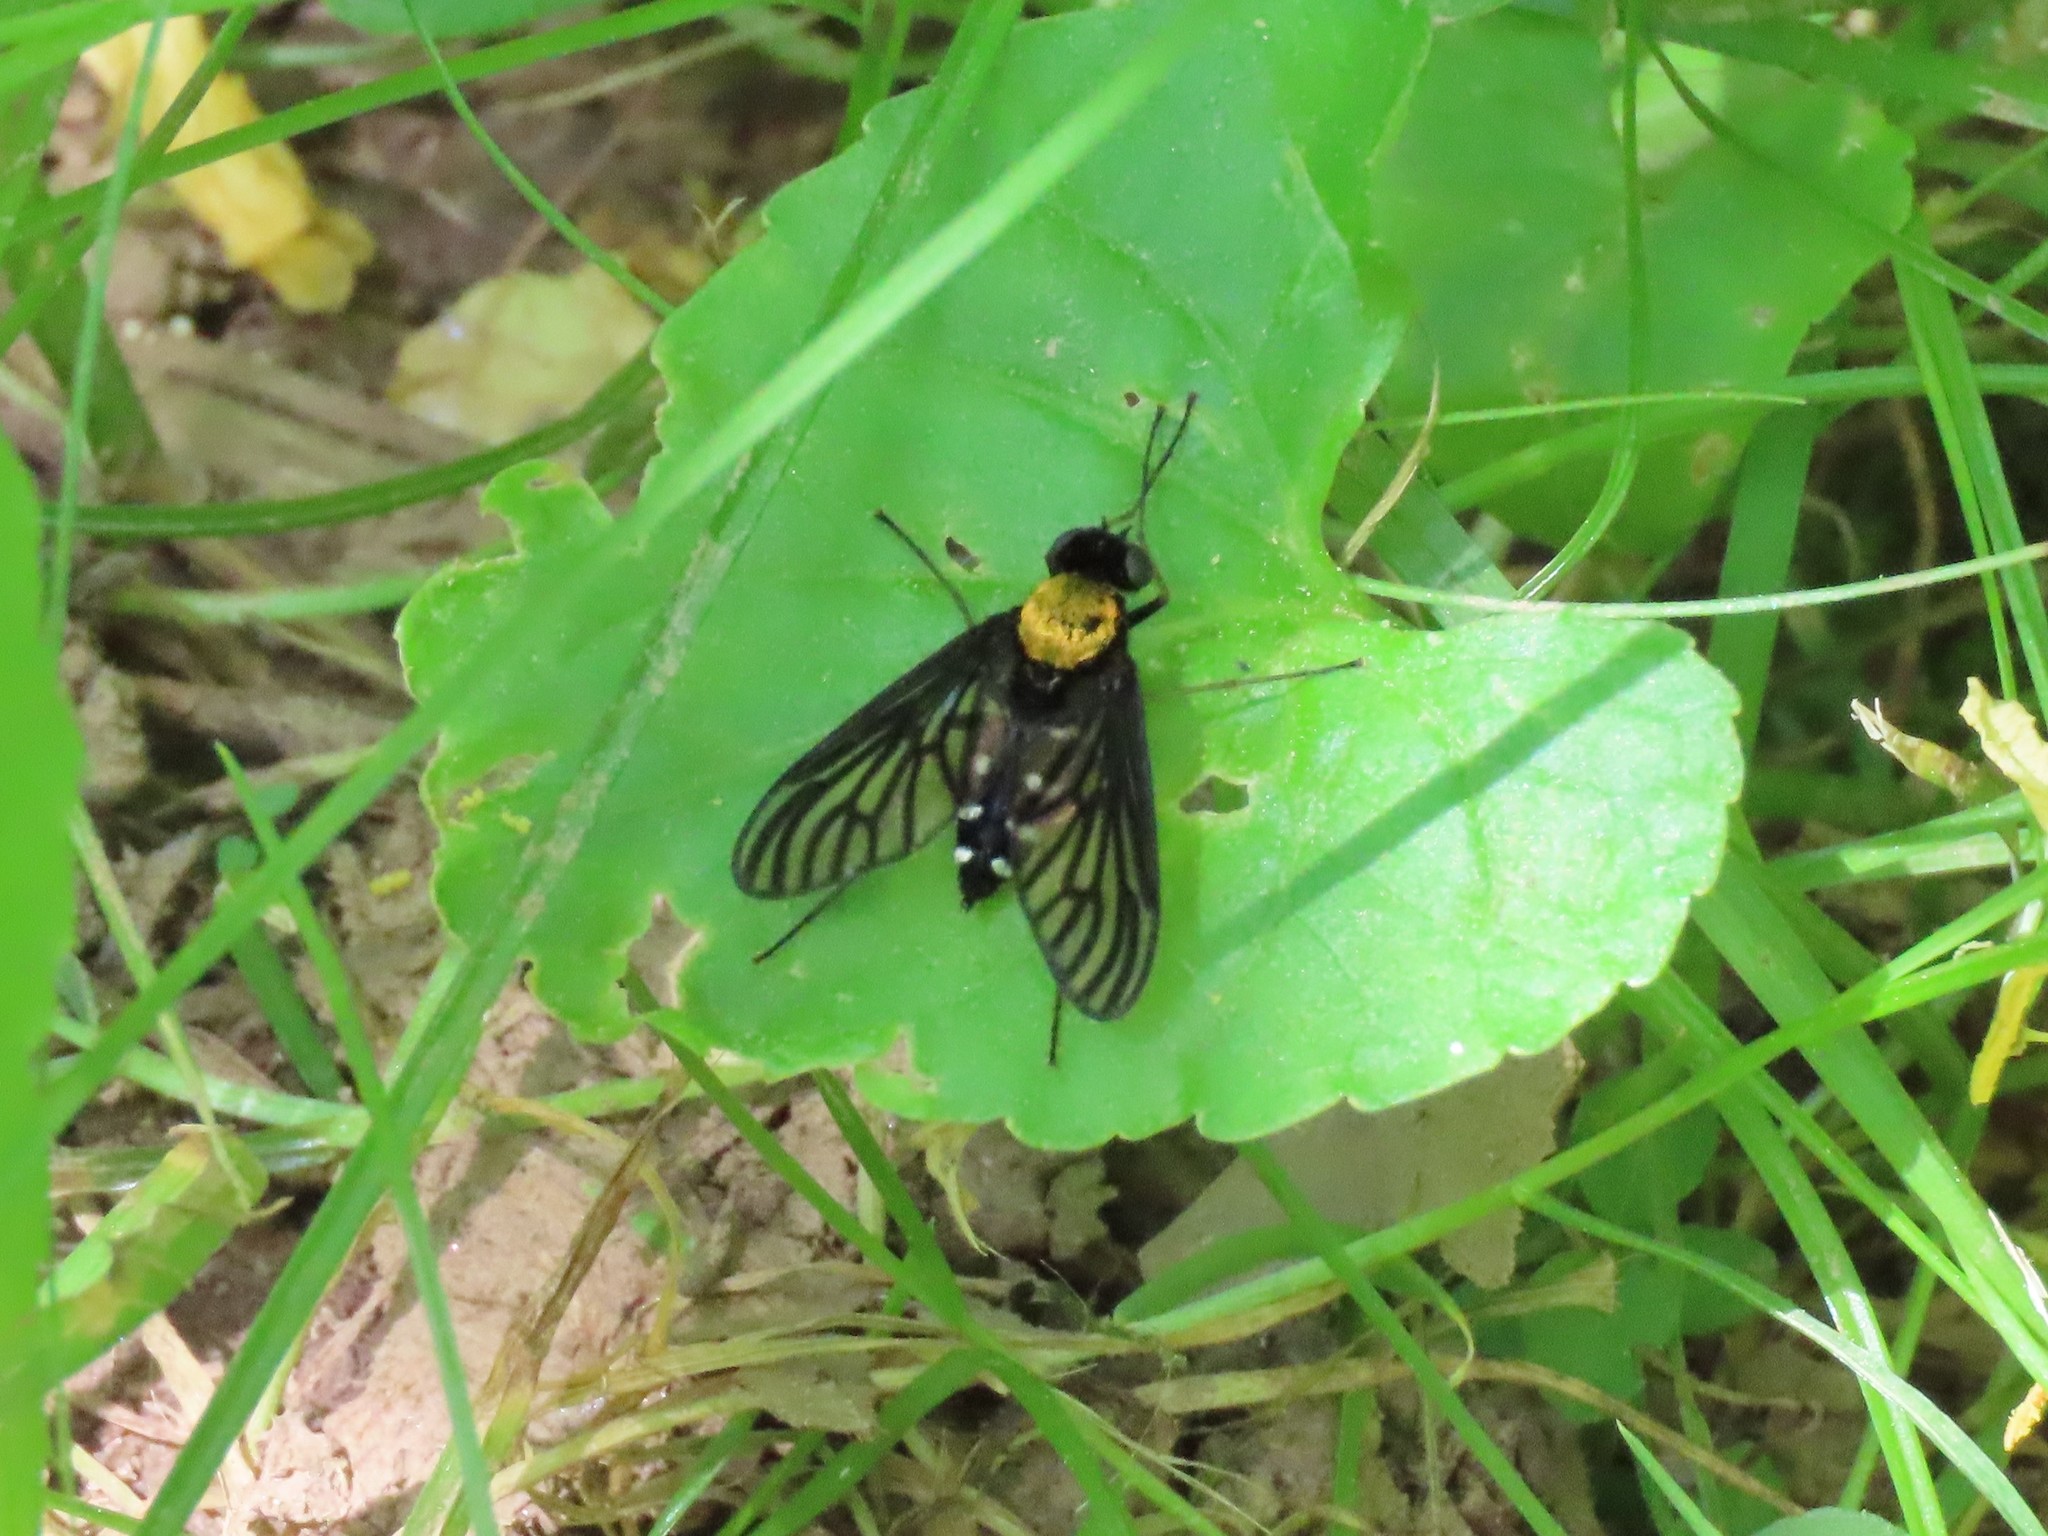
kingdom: Animalia
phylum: Arthropoda
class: Insecta
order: Diptera
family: Rhagionidae
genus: Chrysopilus
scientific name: Chrysopilus thoracicus
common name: Golden-backed snipe fly
